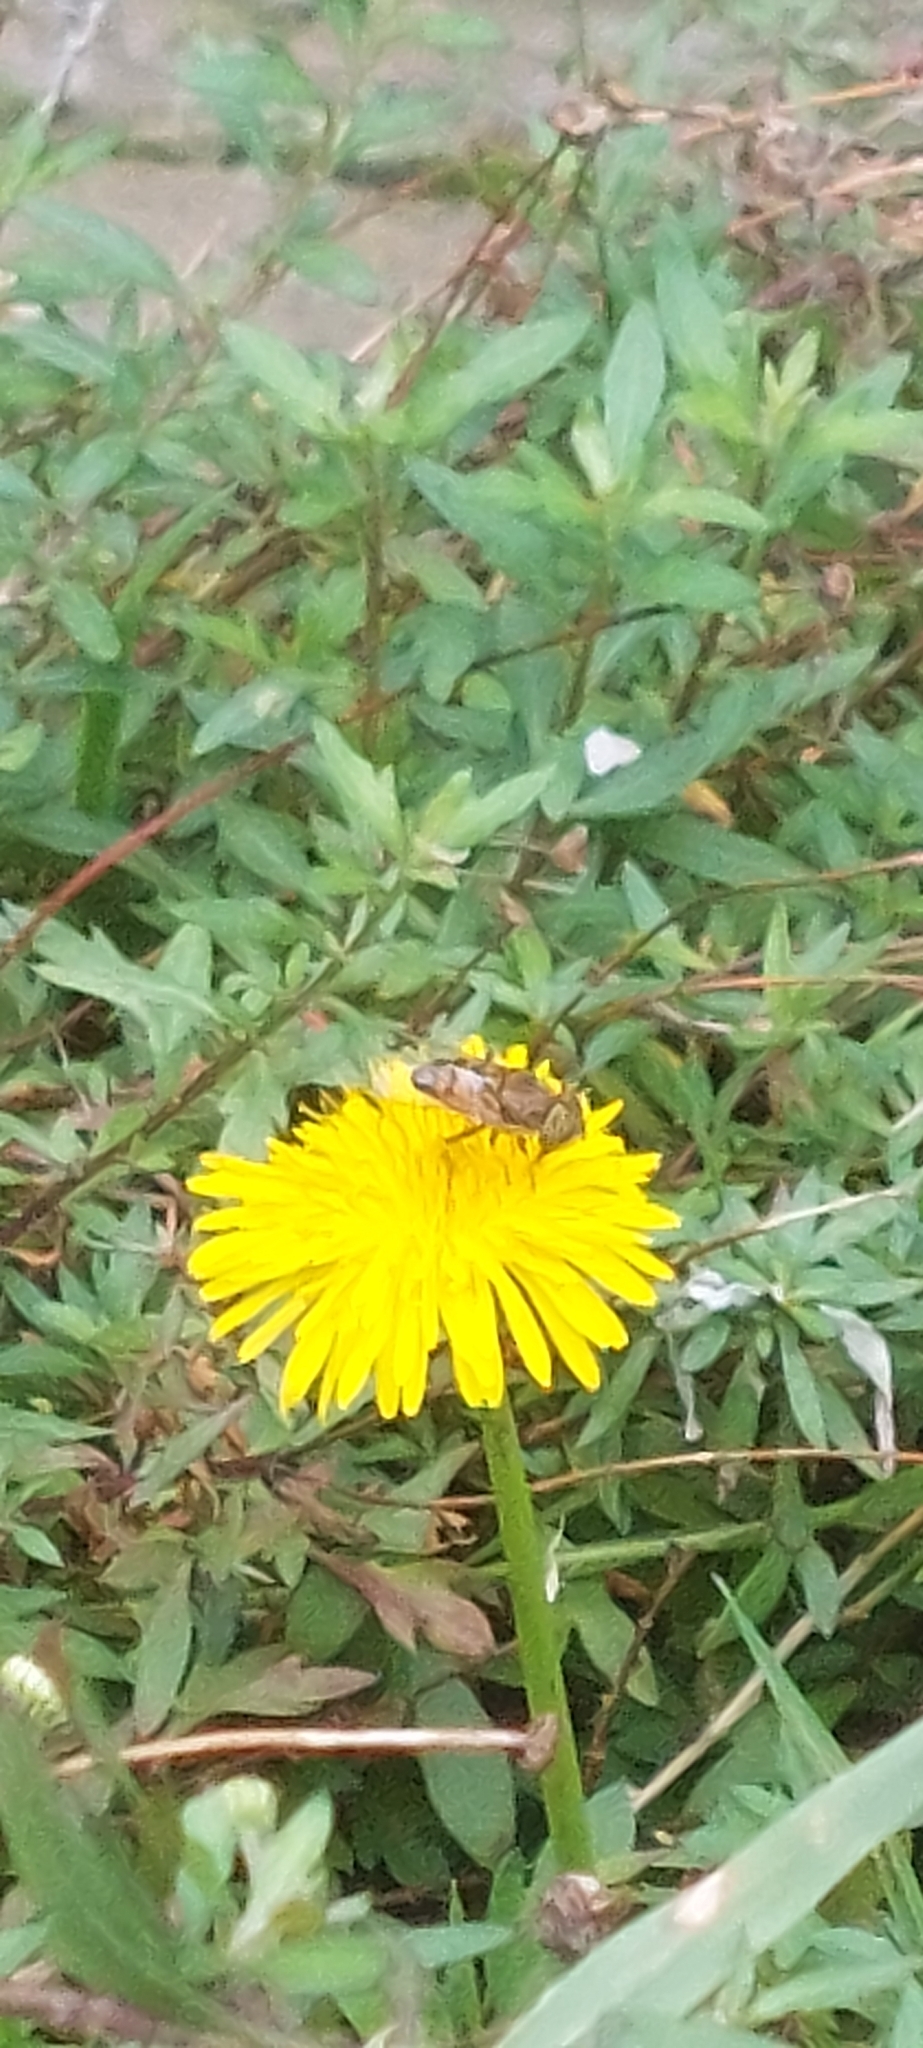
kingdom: Animalia
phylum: Arthropoda
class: Insecta
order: Diptera
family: Syrphidae
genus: Eristalinus
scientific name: Eristalinus taeniops
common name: Syrphid fly
